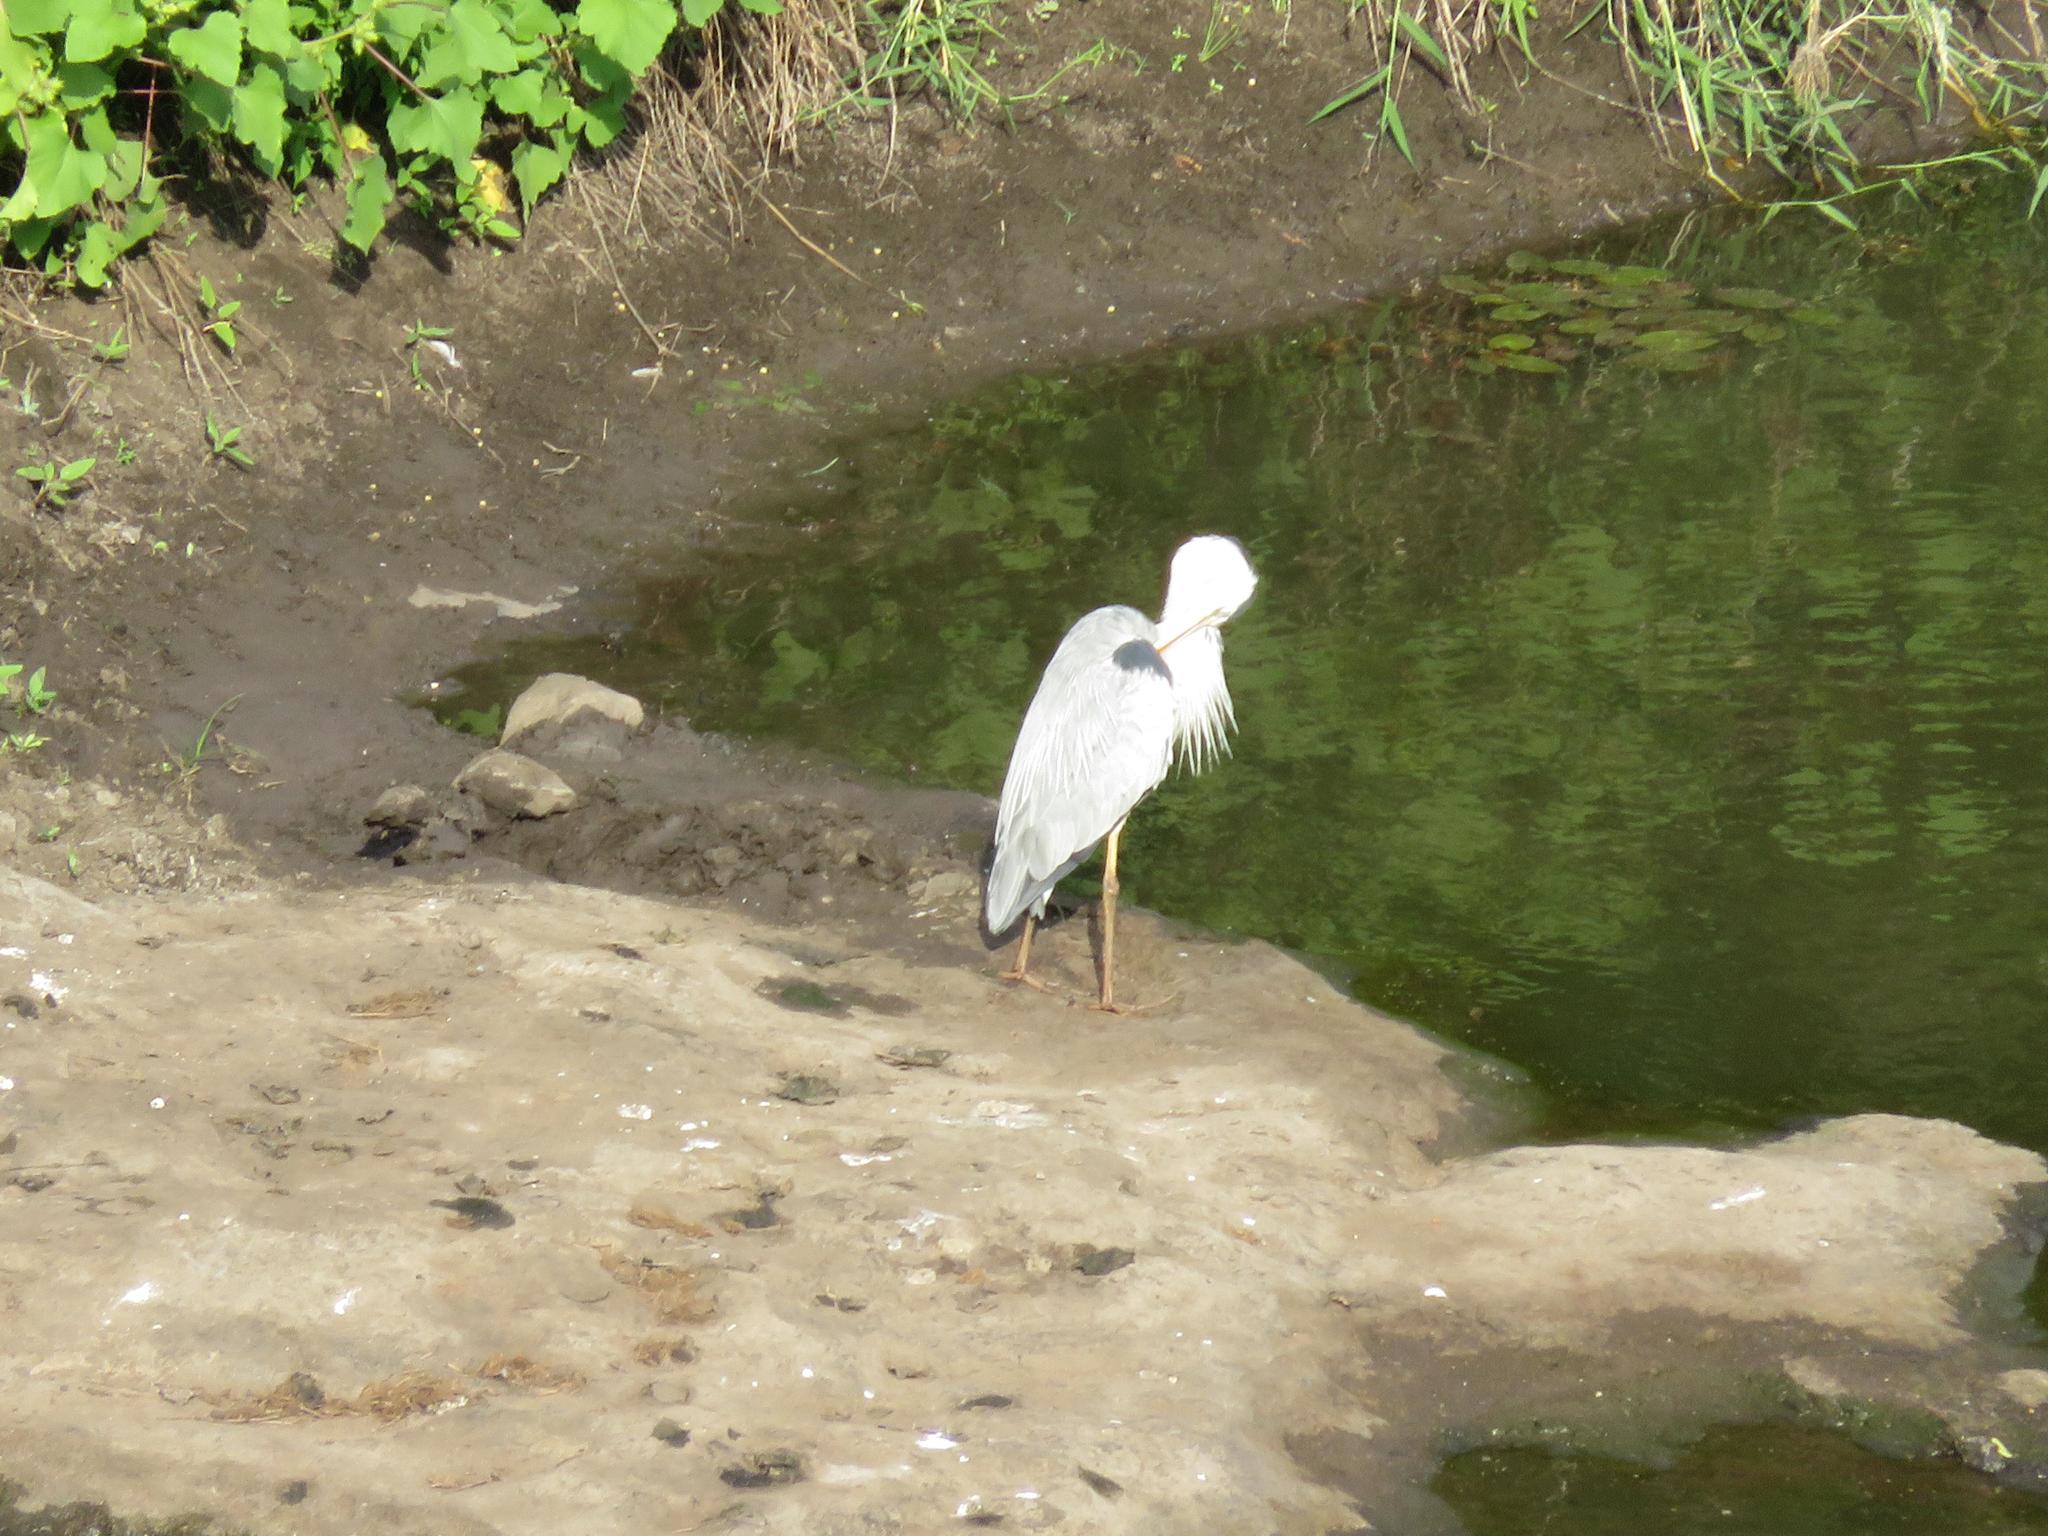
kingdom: Animalia
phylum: Chordata
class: Aves
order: Pelecaniformes
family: Ardeidae
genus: Ardea
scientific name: Ardea cinerea
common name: Grey heron
